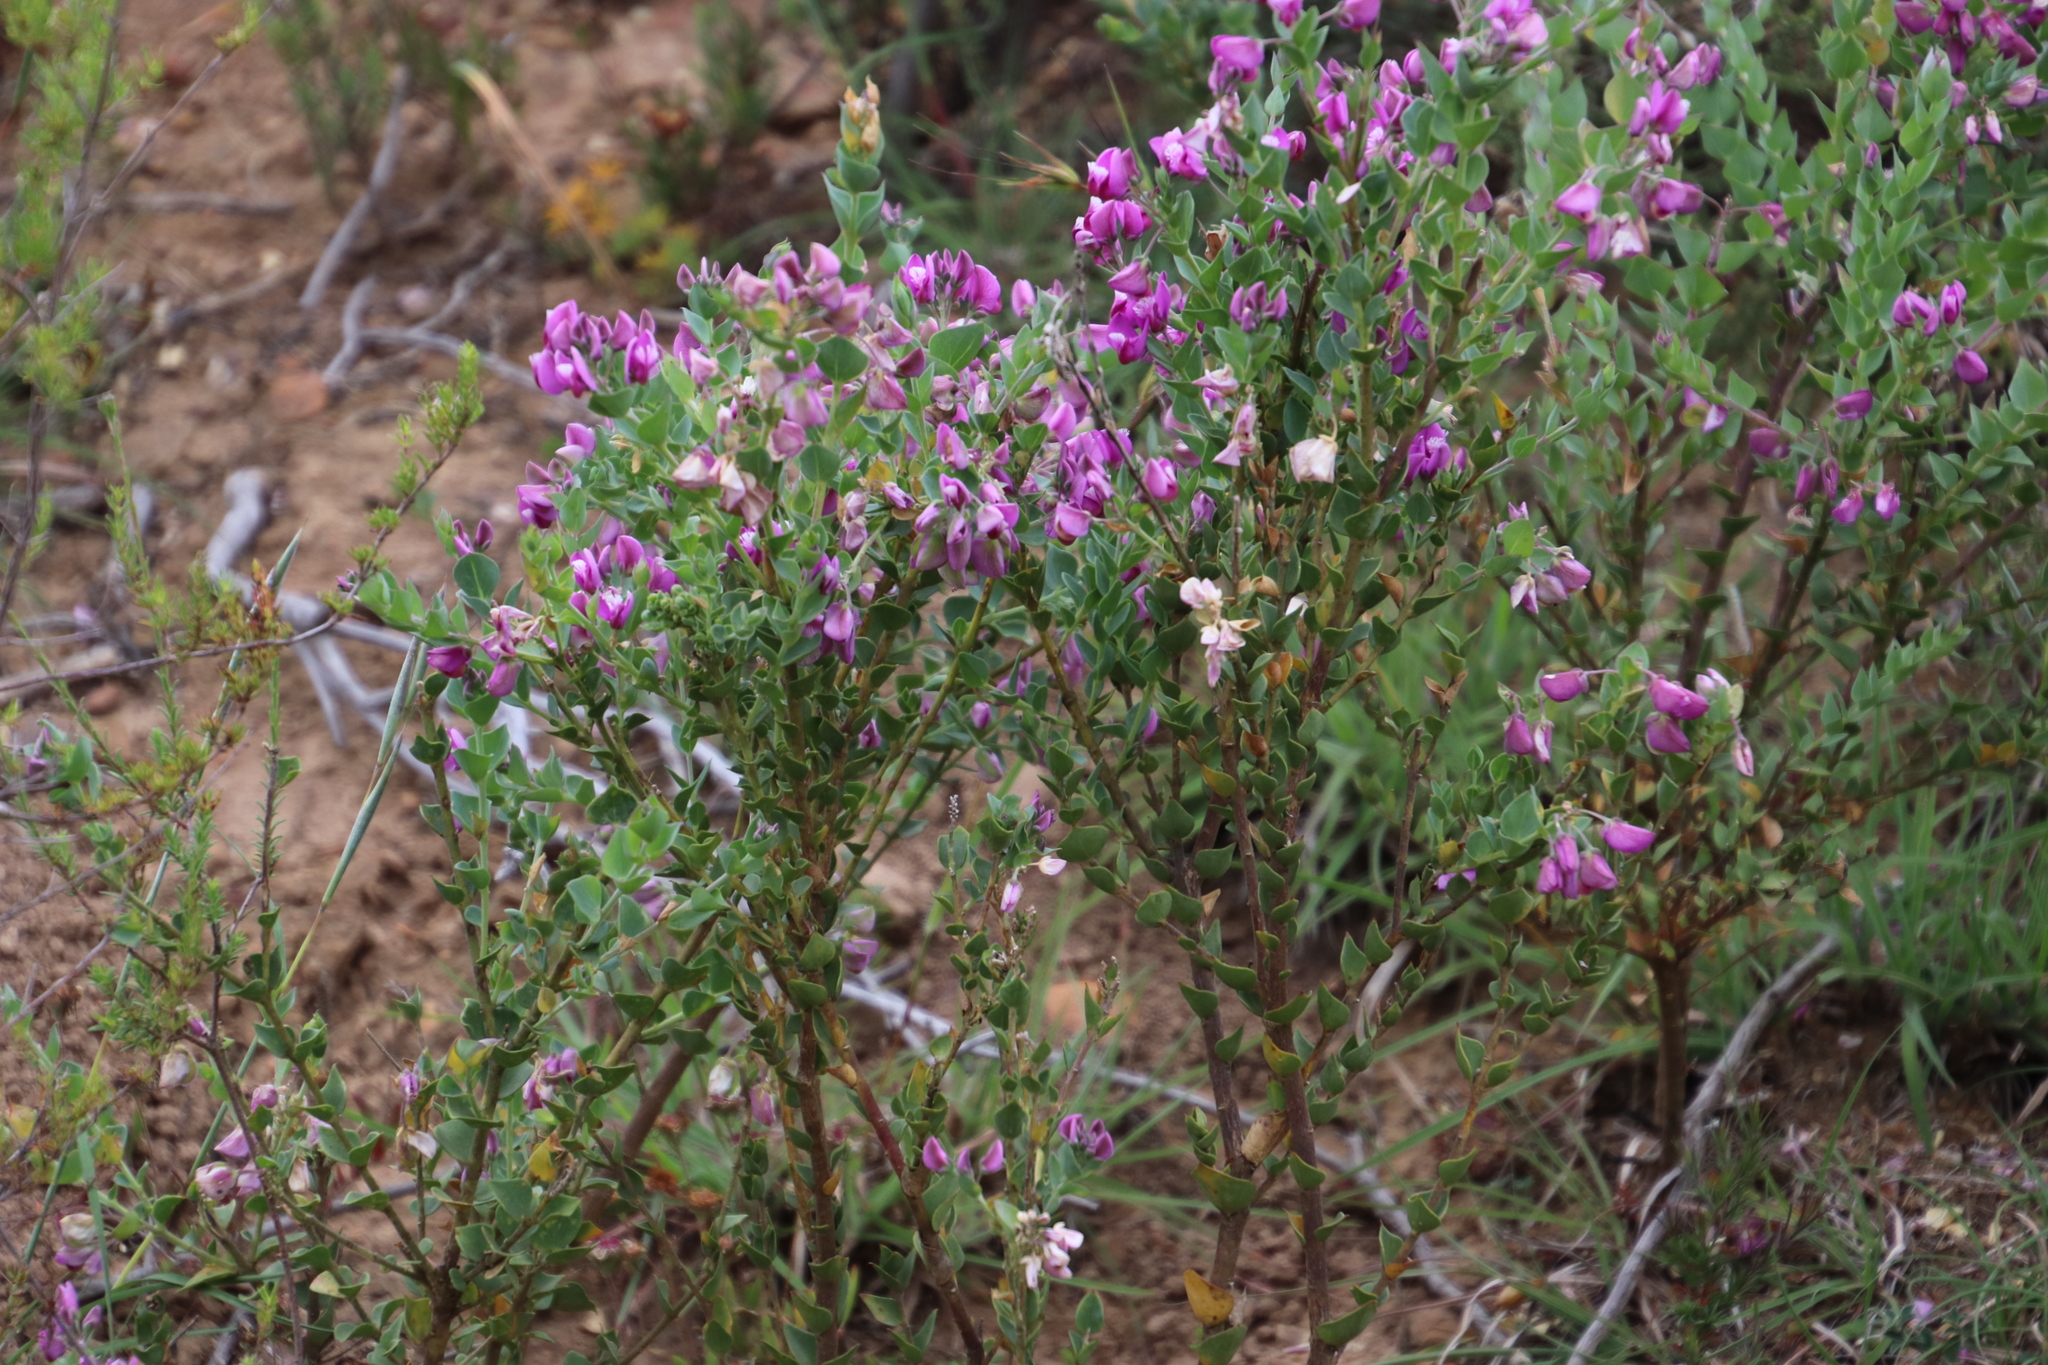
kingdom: Plantae
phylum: Tracheophyta
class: Magnoliopsida
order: Fabales
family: Polygalaceae
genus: Polygala
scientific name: Polygala fruticosa
